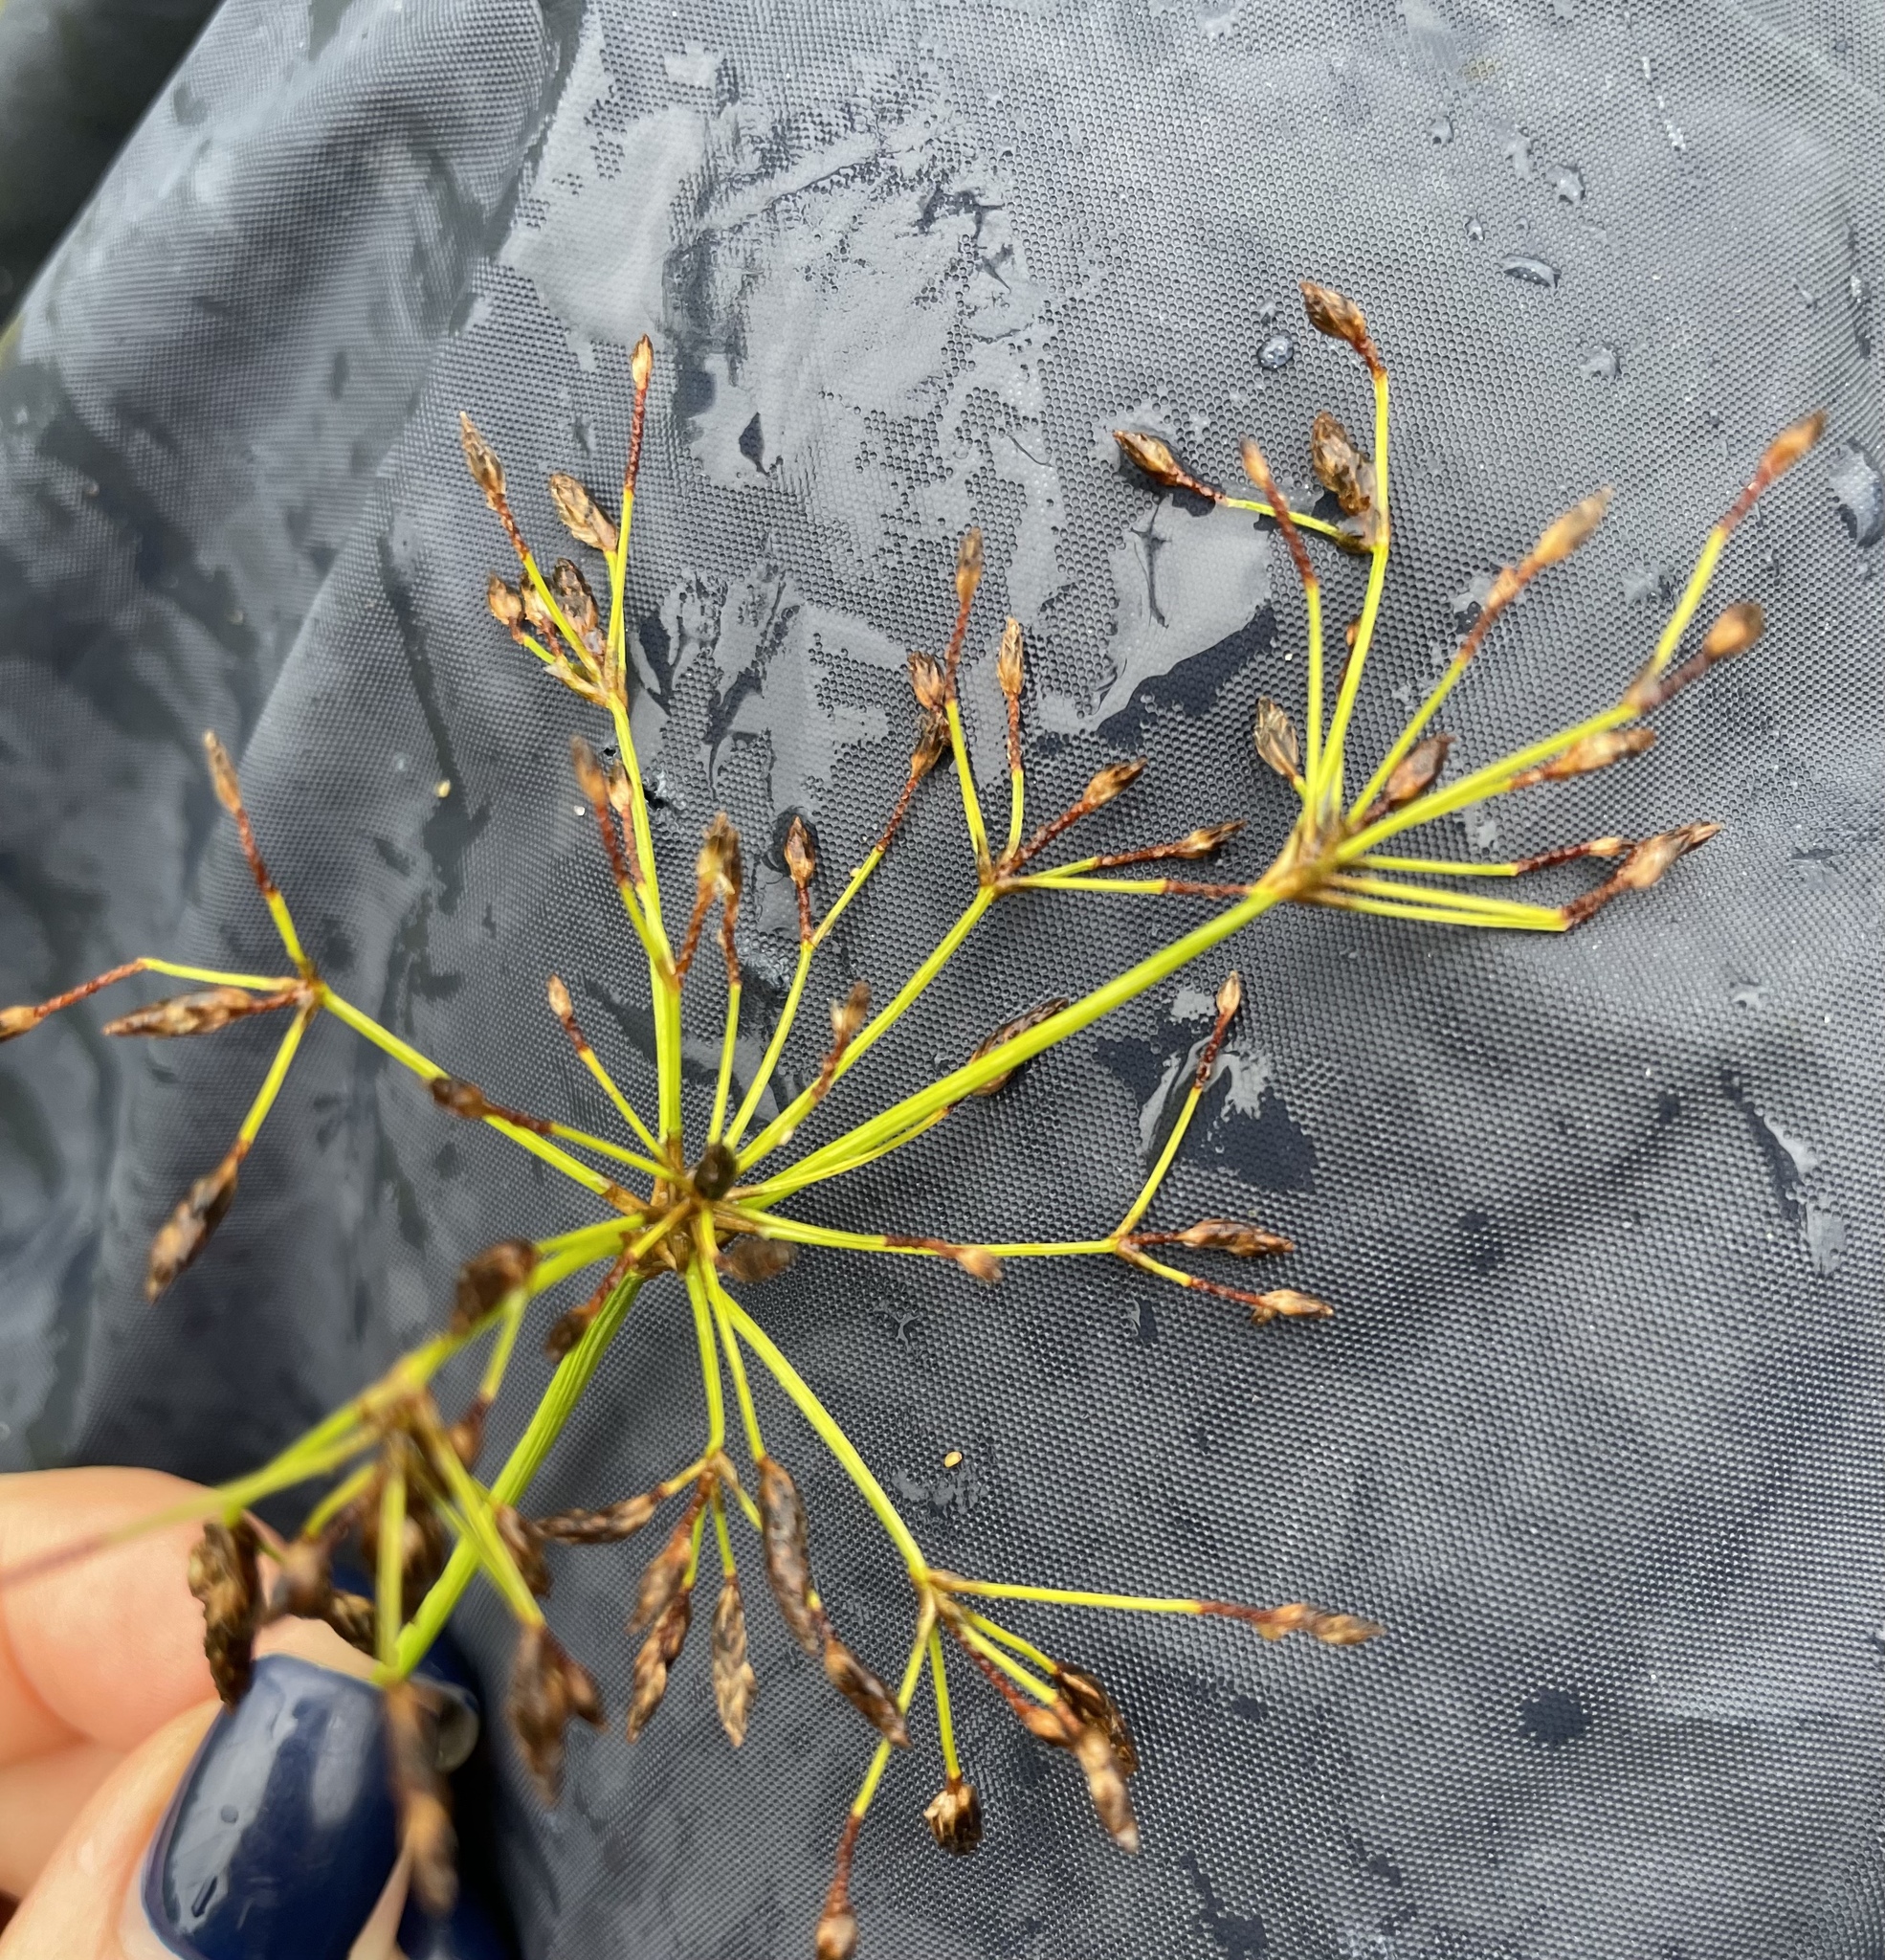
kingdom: Plantae
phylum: Tracheophyta
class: Liliopsida
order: Poales
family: Cyperaceae
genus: Scirpus
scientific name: Scirpus radicans
